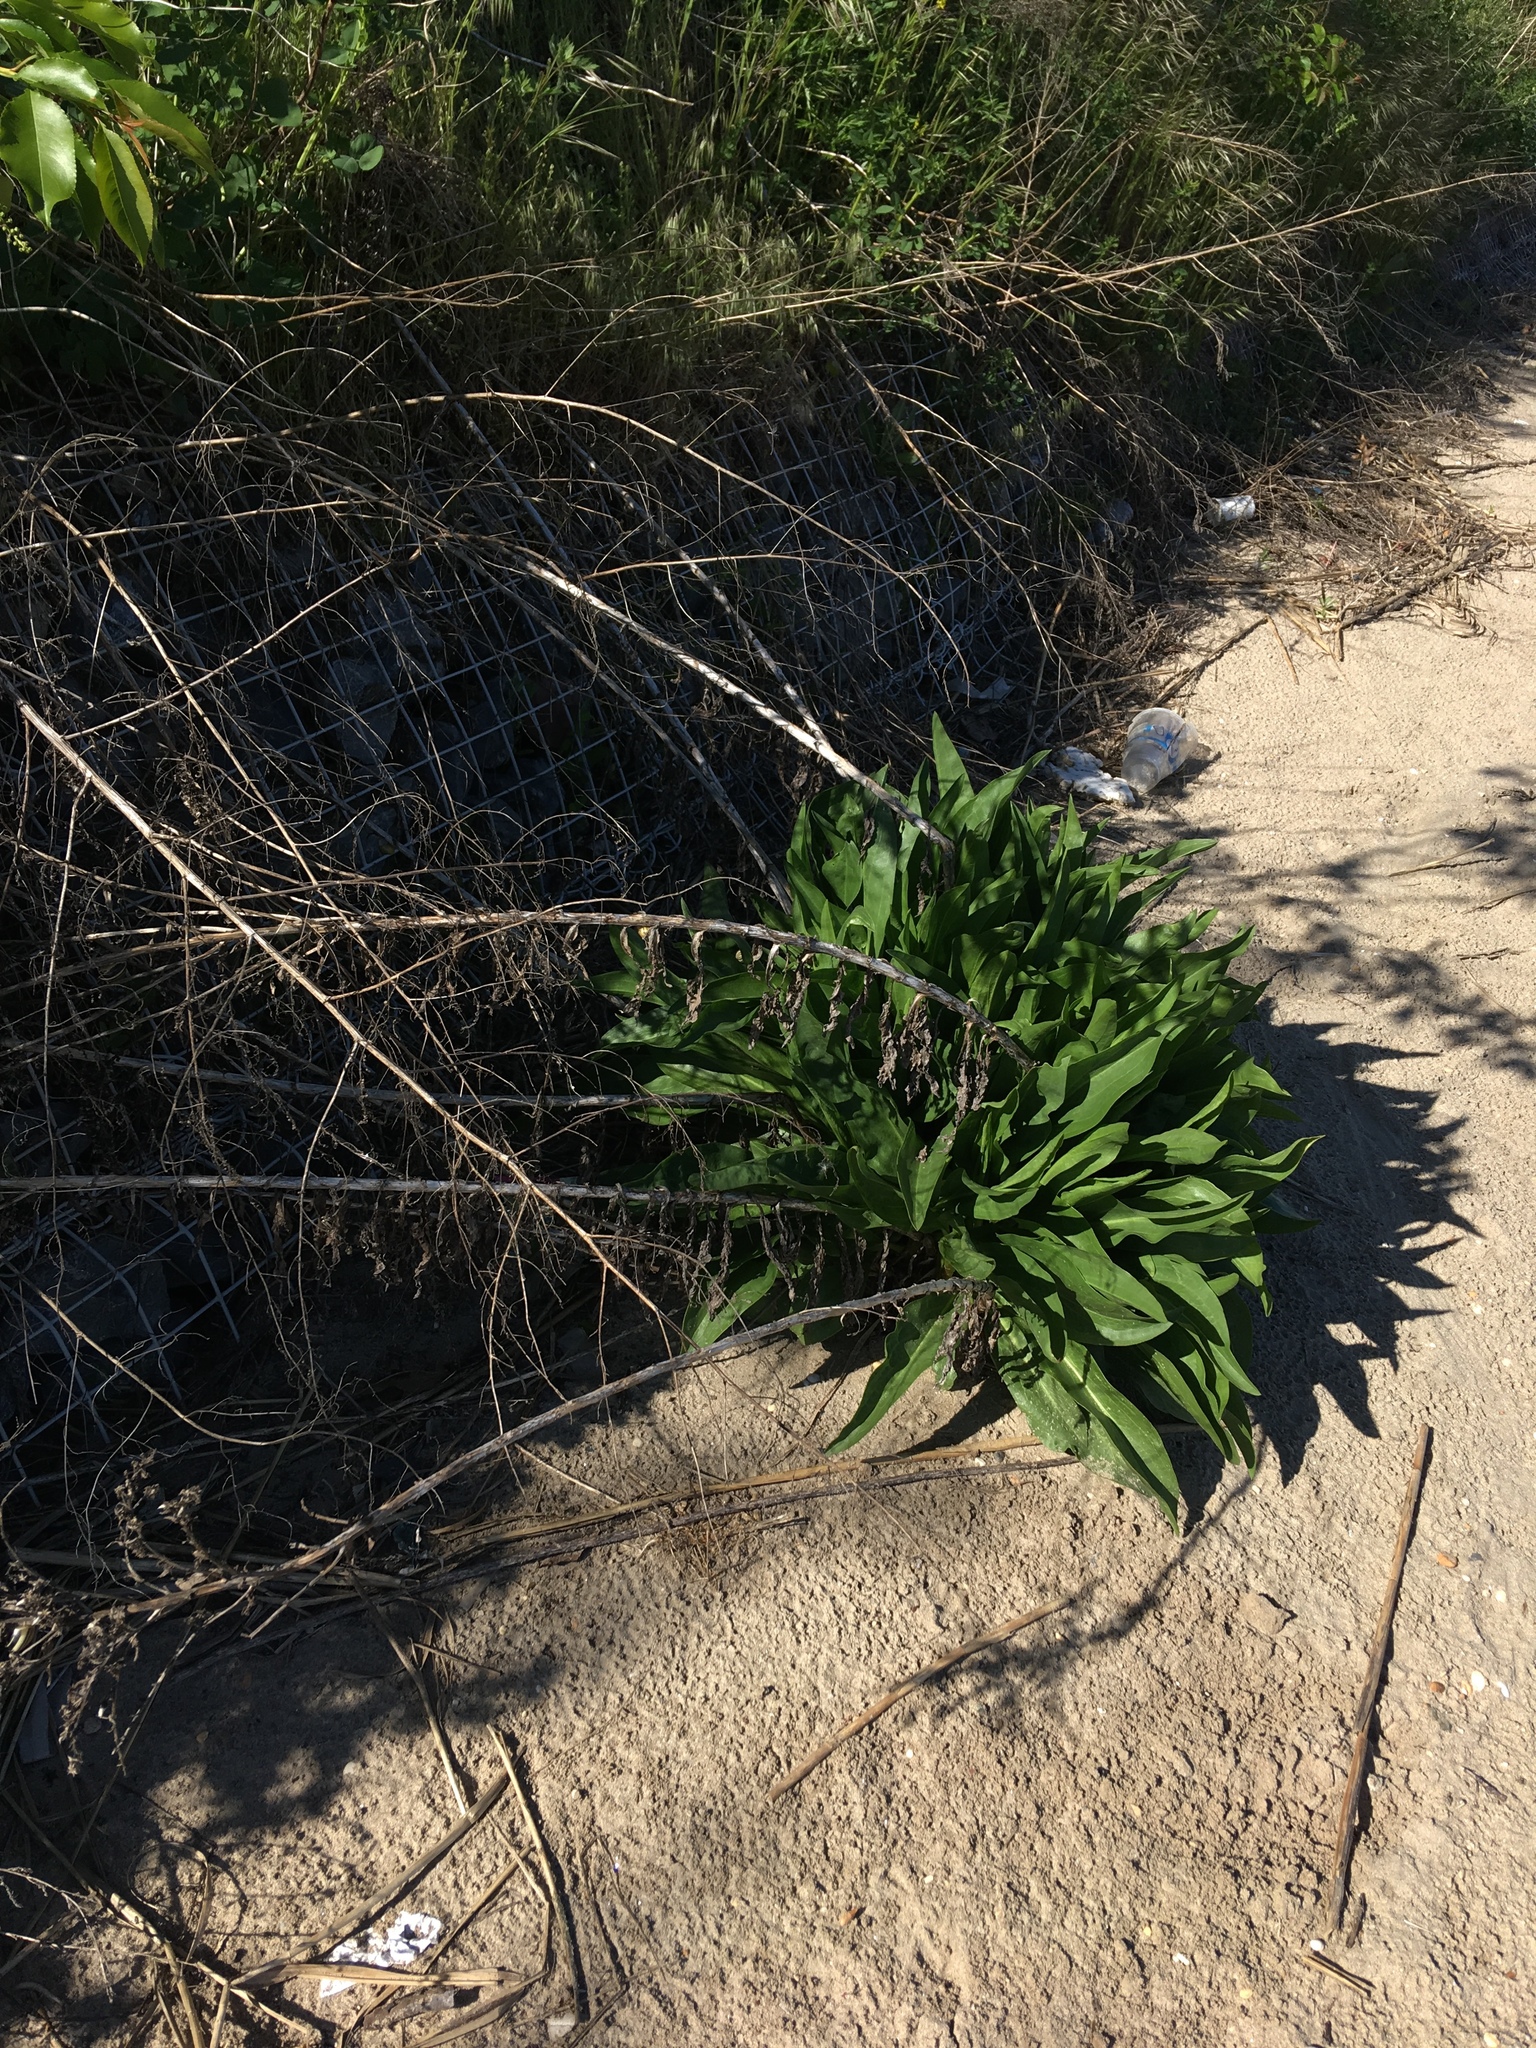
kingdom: Plantae
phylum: Tracheophyta
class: Magnoliopsida
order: Asterales
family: Asteraceae
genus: Solidago
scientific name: Solidago sempervirens
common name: Salt-marsh goldenrod
